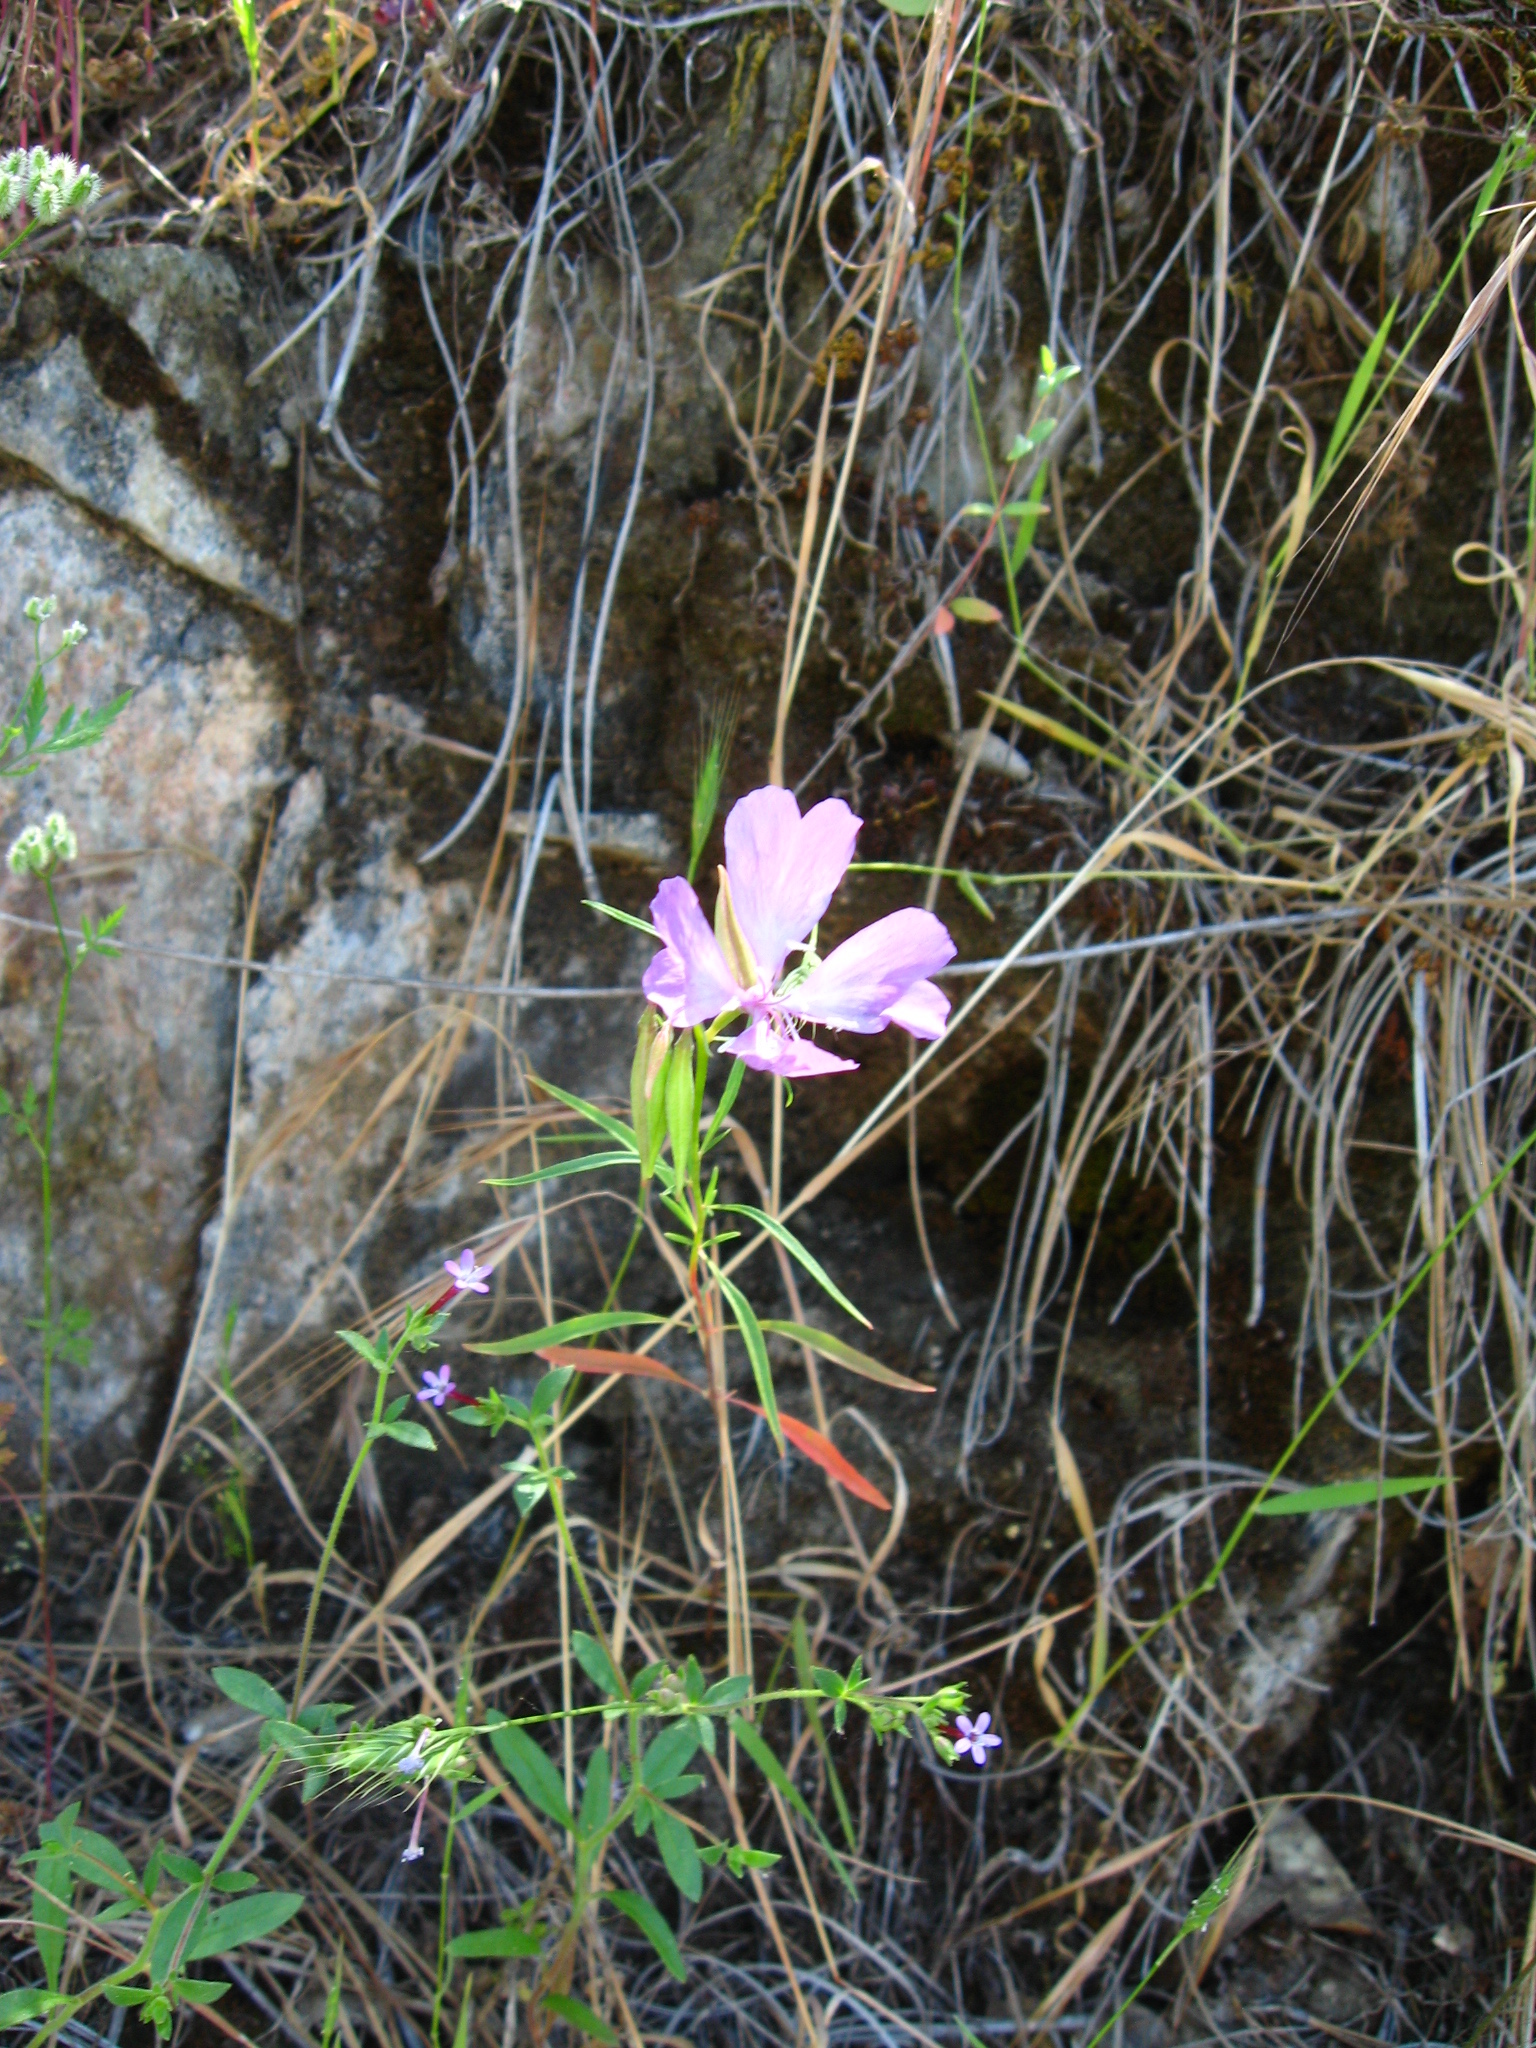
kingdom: Plantae
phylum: Tracheophyta
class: Magnoliopsida
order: Myrtales
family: Onagraceae
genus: Clarkia
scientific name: Clarkia biloba
